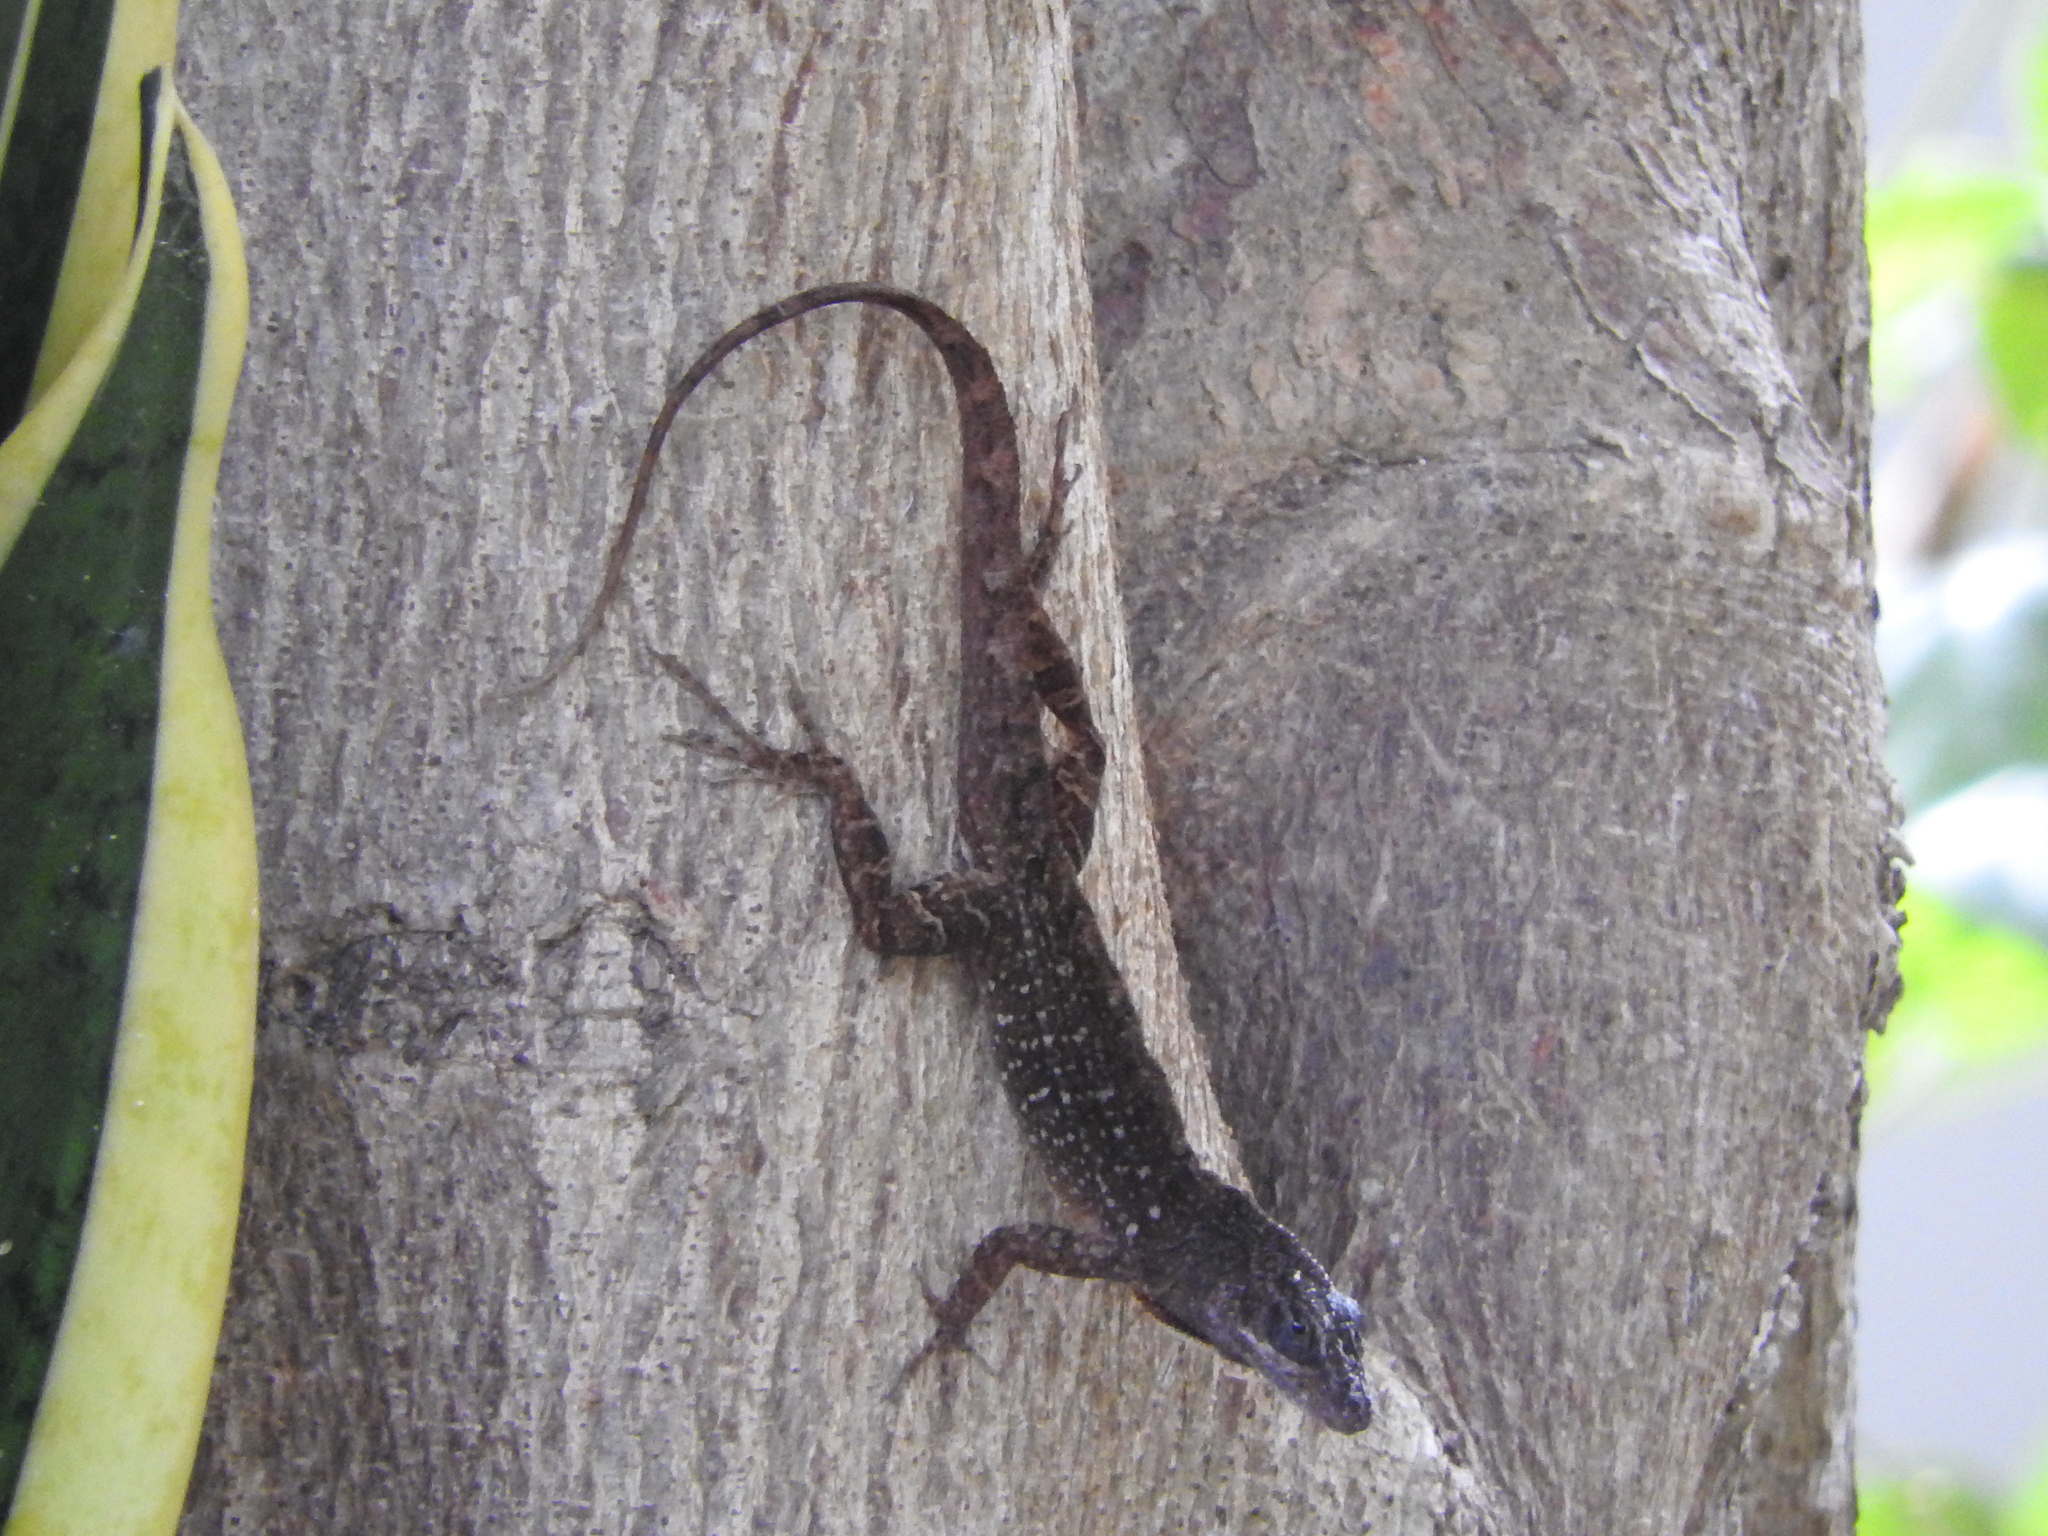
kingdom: Animalia
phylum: Chordata
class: Squamata
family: Dactyloidae
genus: Anolis
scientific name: Anolis sagrei
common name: Brown anole
